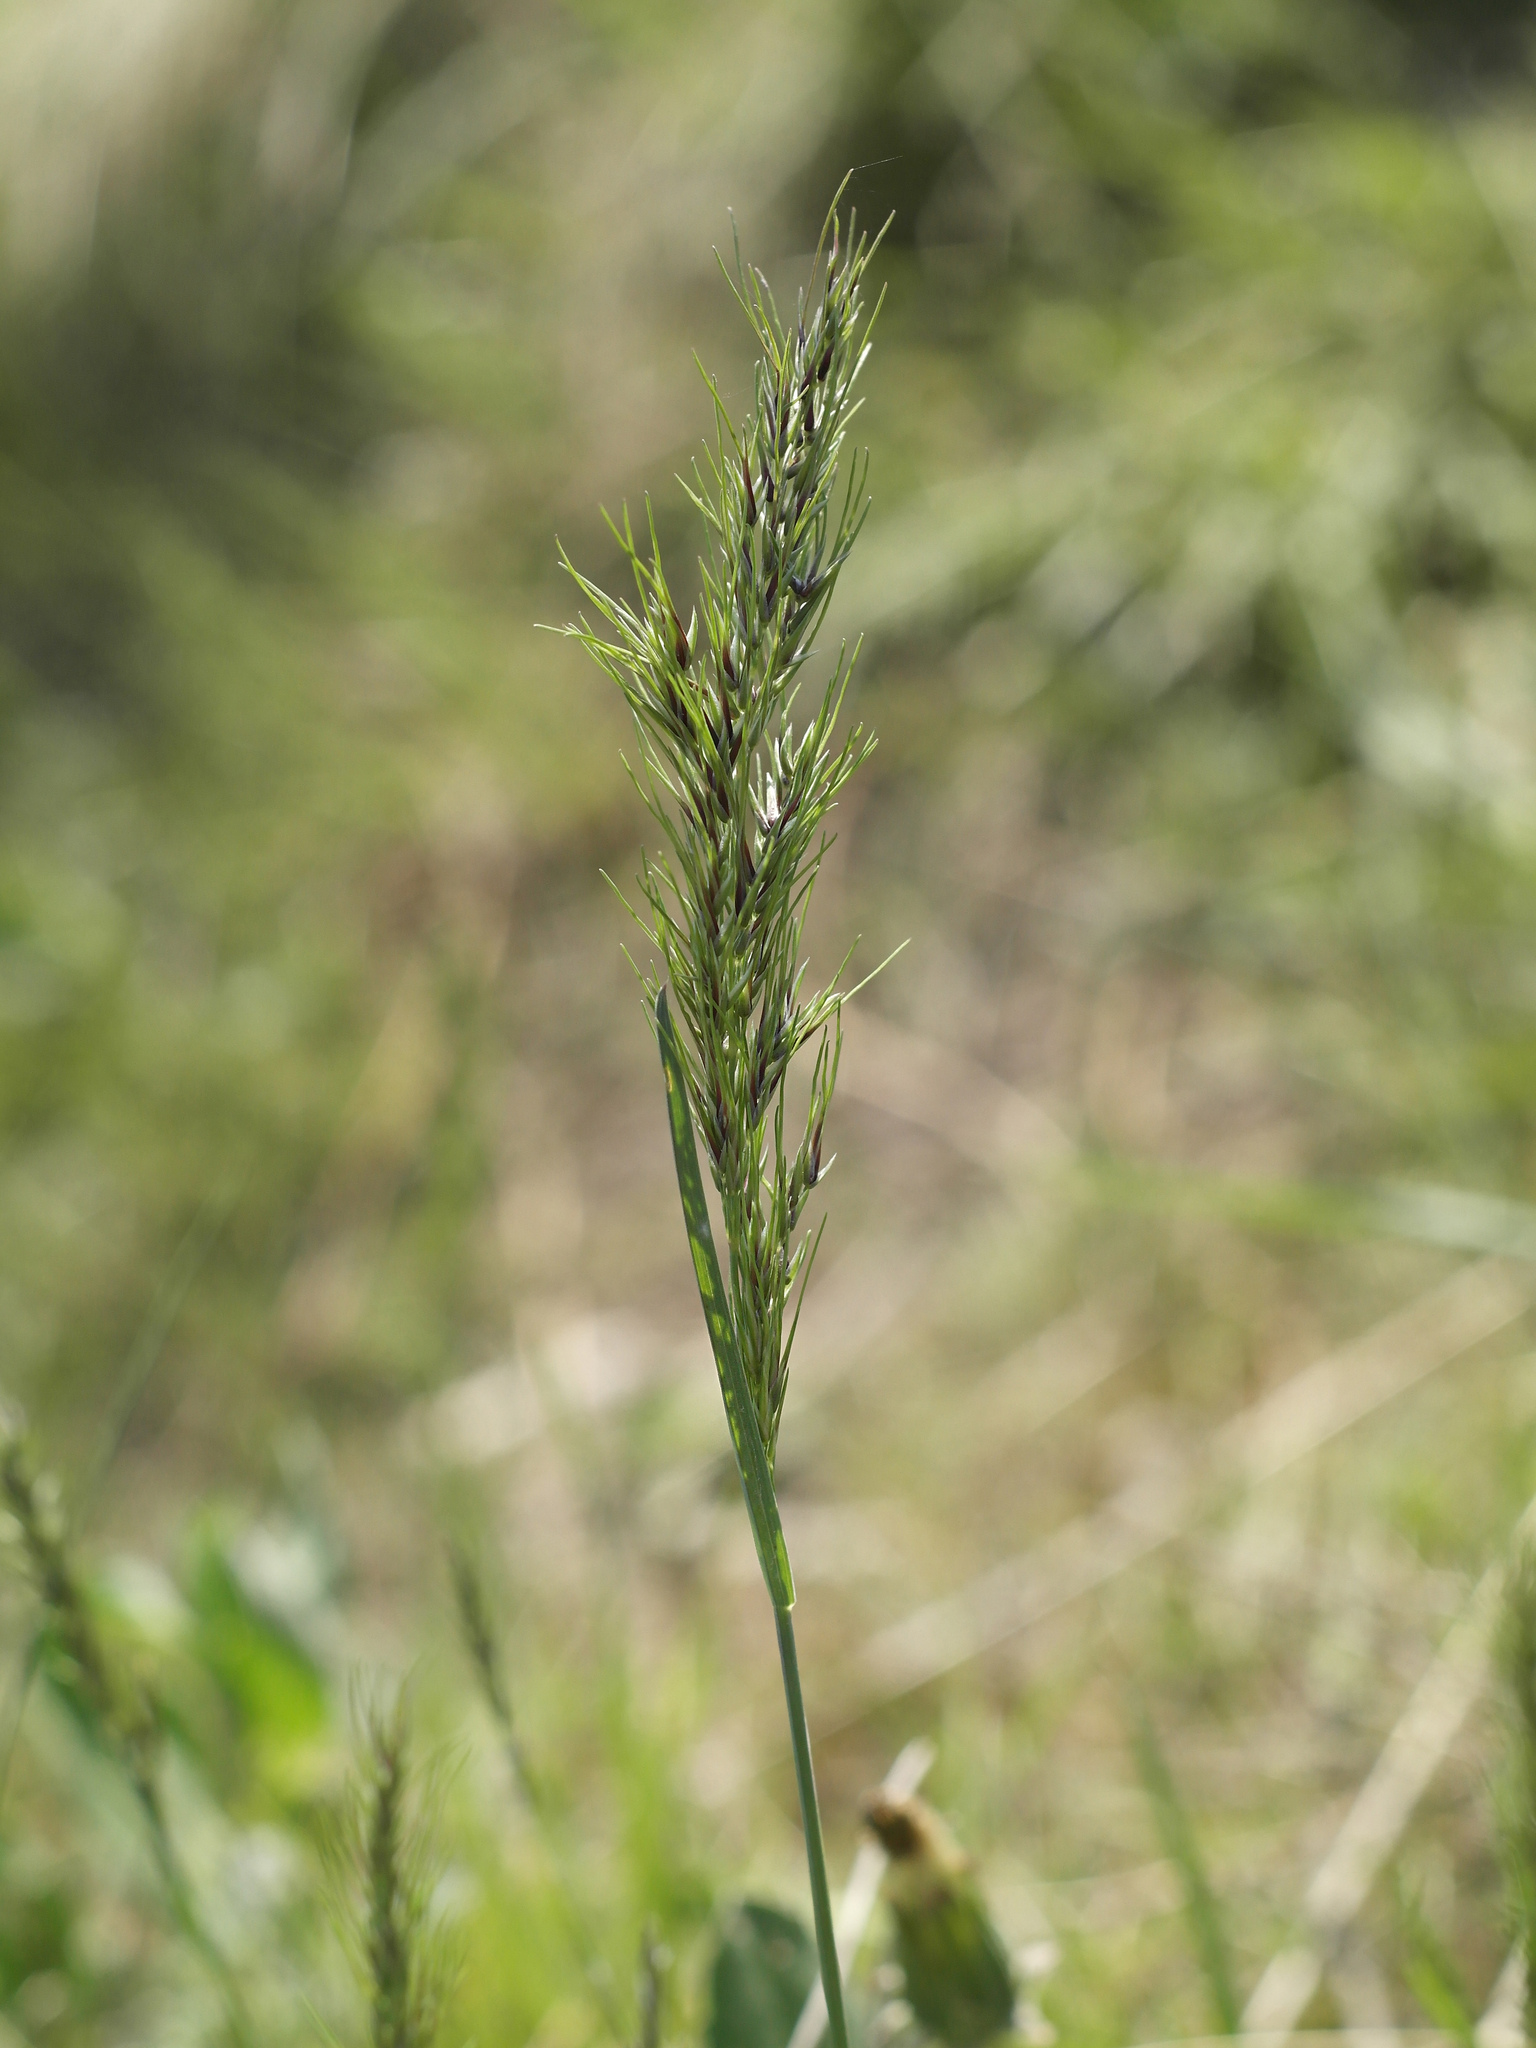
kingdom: Plantae
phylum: Tracheophyta
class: Liliopsida
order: Poales
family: Poaceae
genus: Poa
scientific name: Poa bulbosa
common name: Bulbous bluegrass
